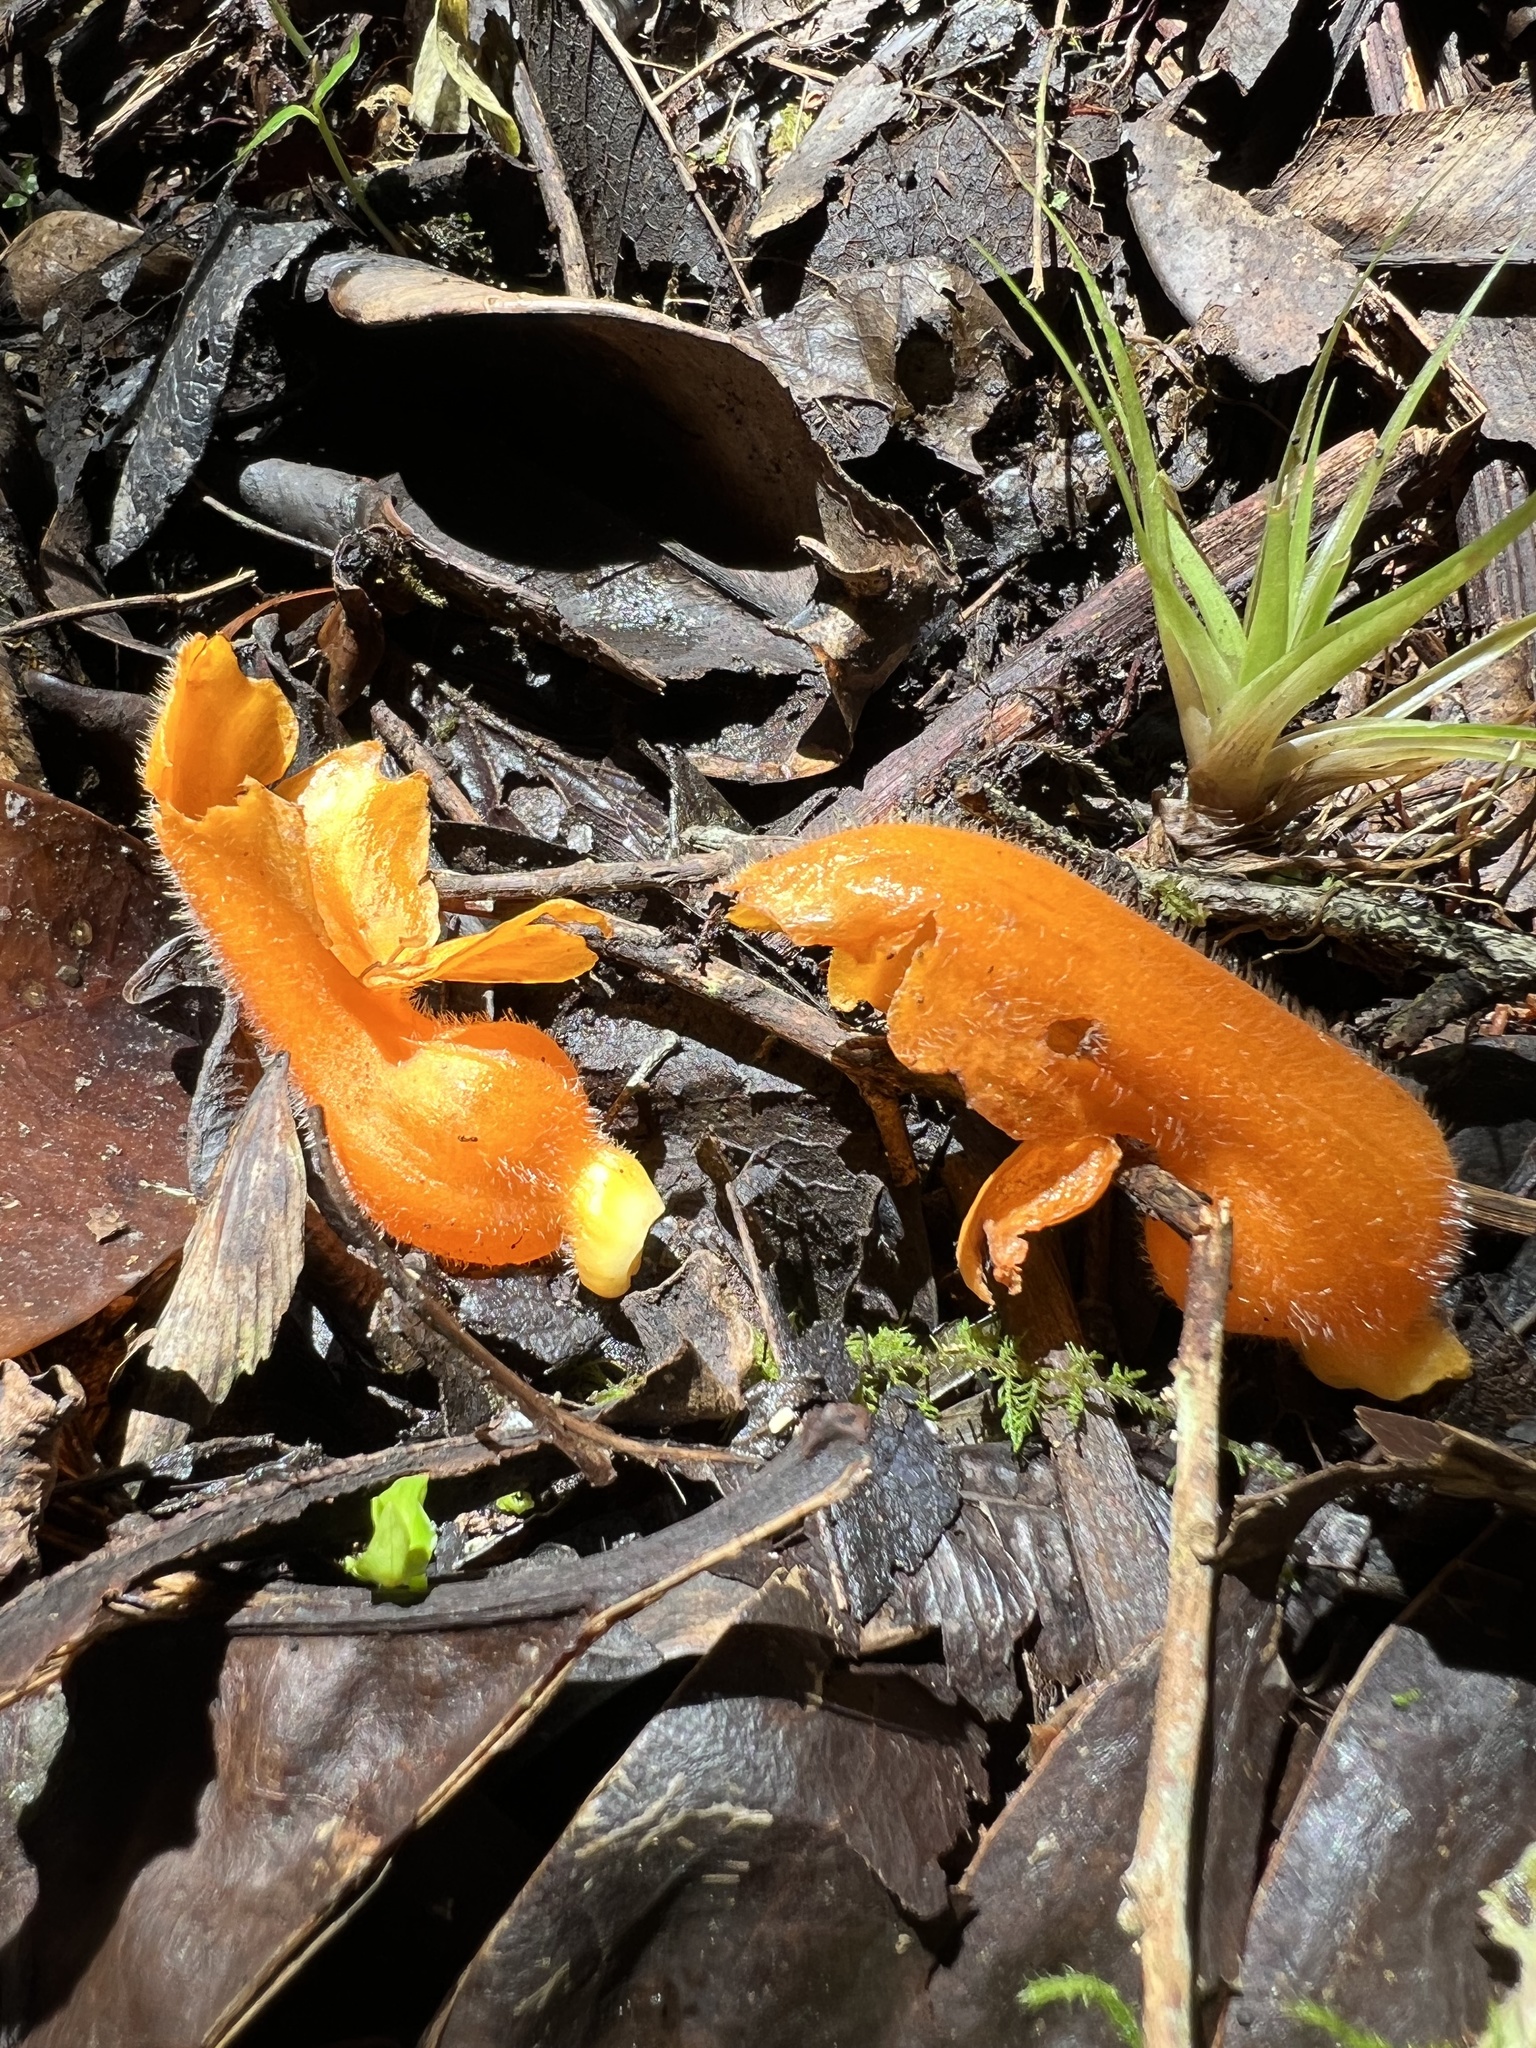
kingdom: Plantae
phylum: Tracheophyta
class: Magnoliopsida
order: Lamiales
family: Gesneriaceae
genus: Columnea
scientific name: Columnea strigosa
